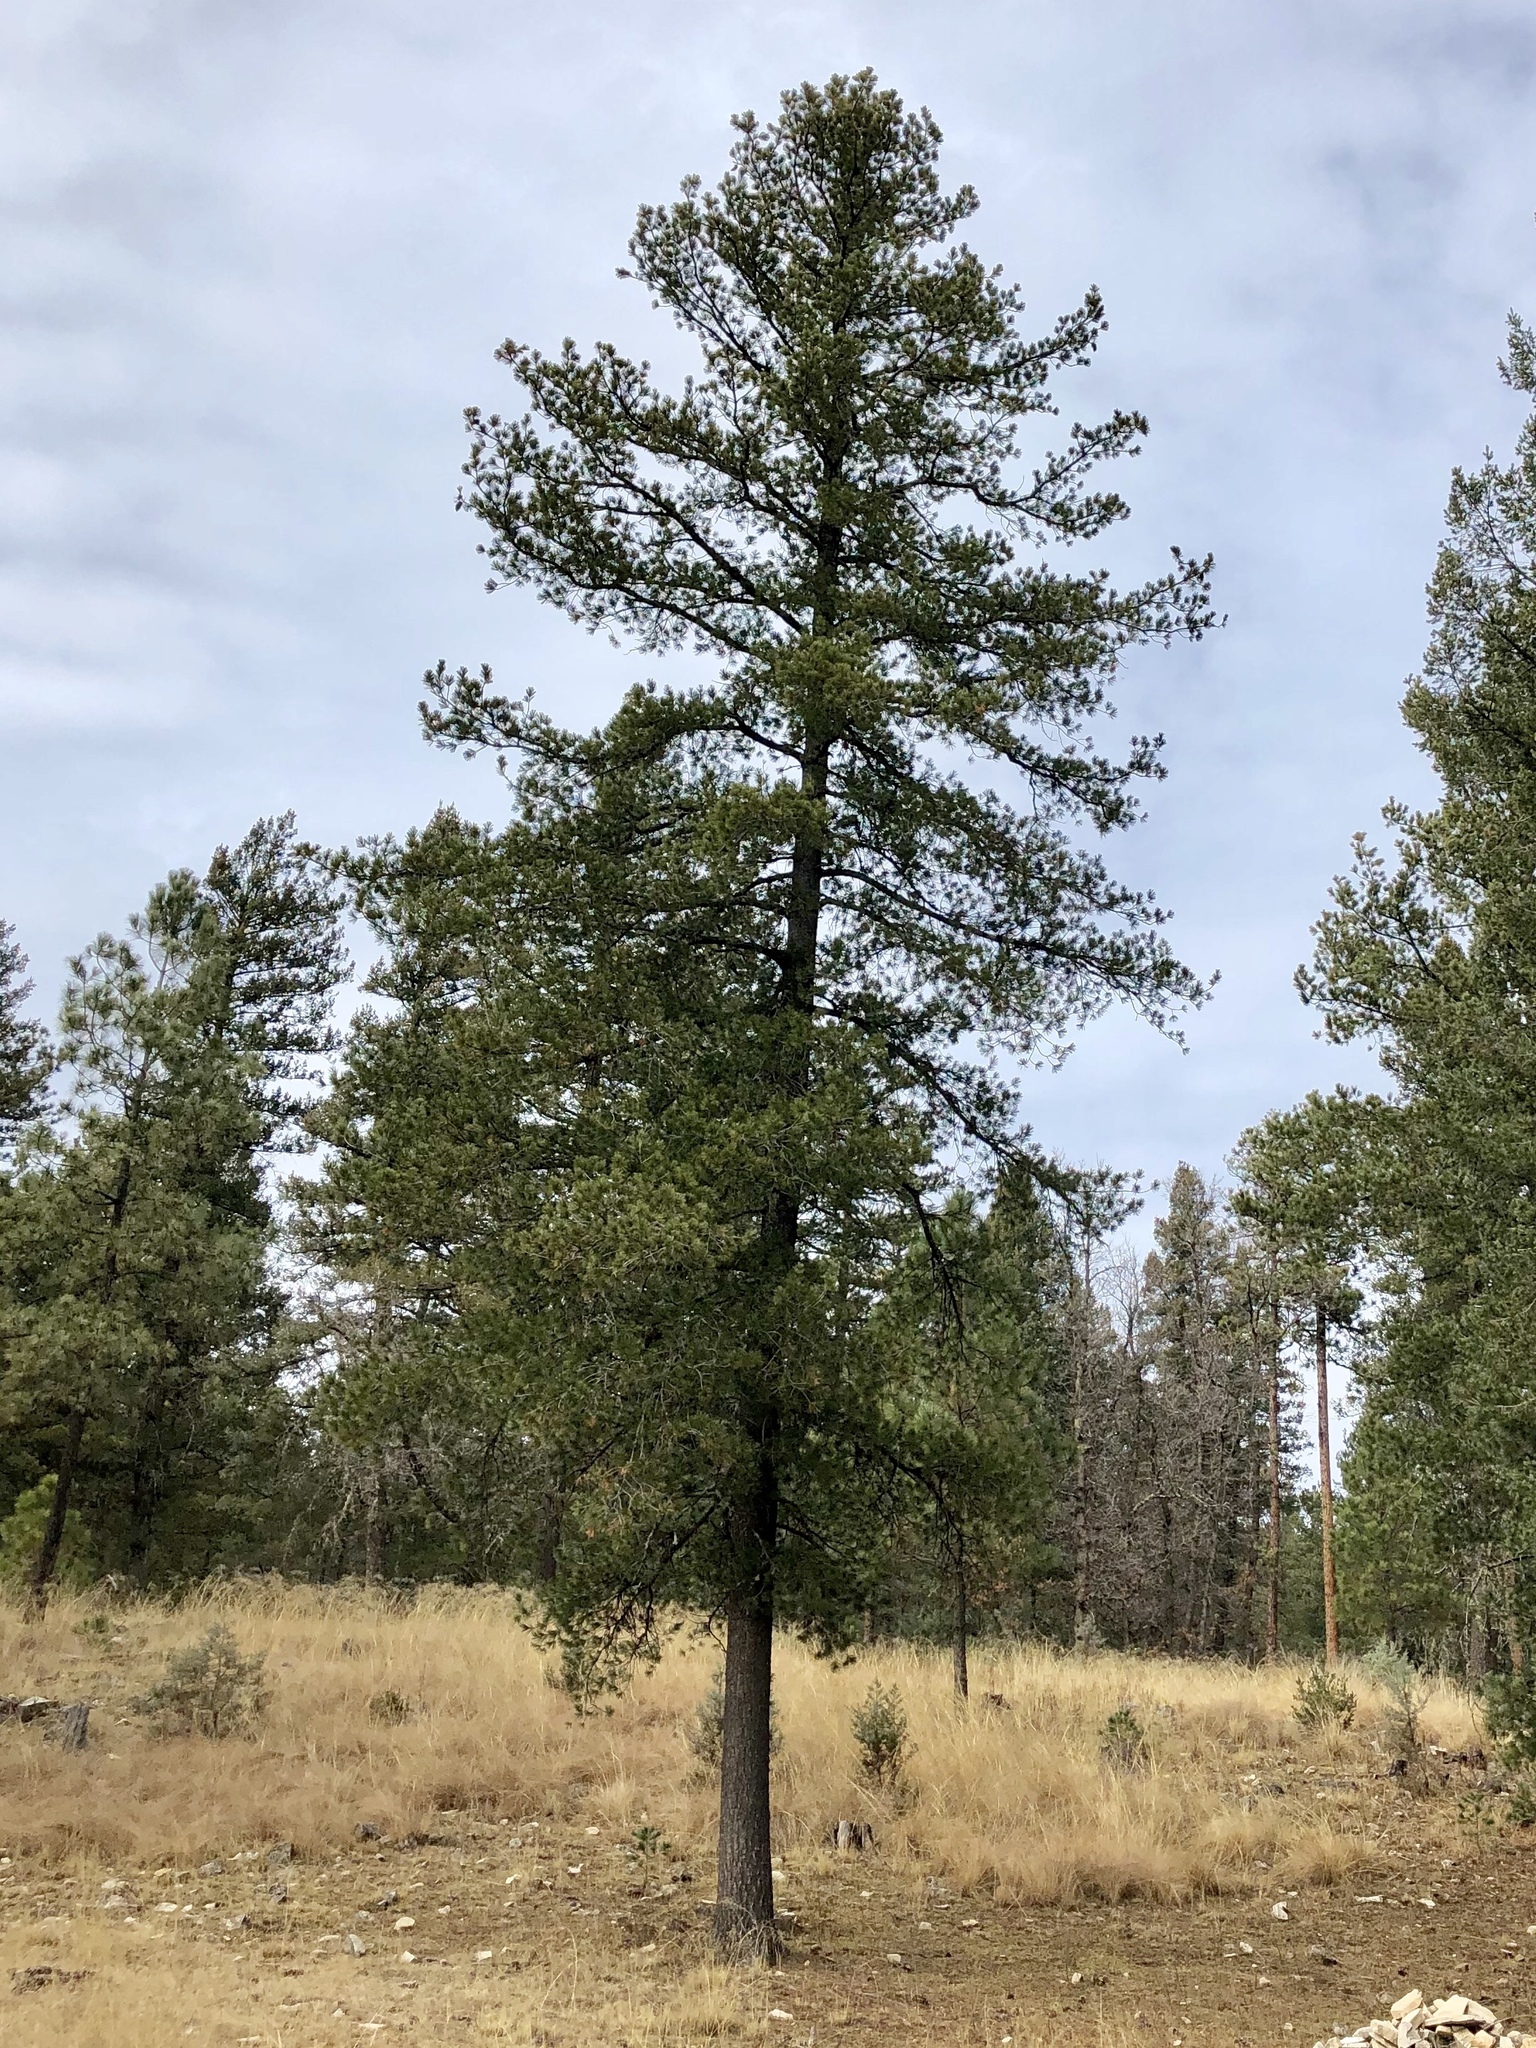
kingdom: Plantae
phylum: Tracheophyta
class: Pinopsida
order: Pinales
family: Pinaceae
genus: Pinus
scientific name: Pinus strobiformis
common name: Southwestern white pine
